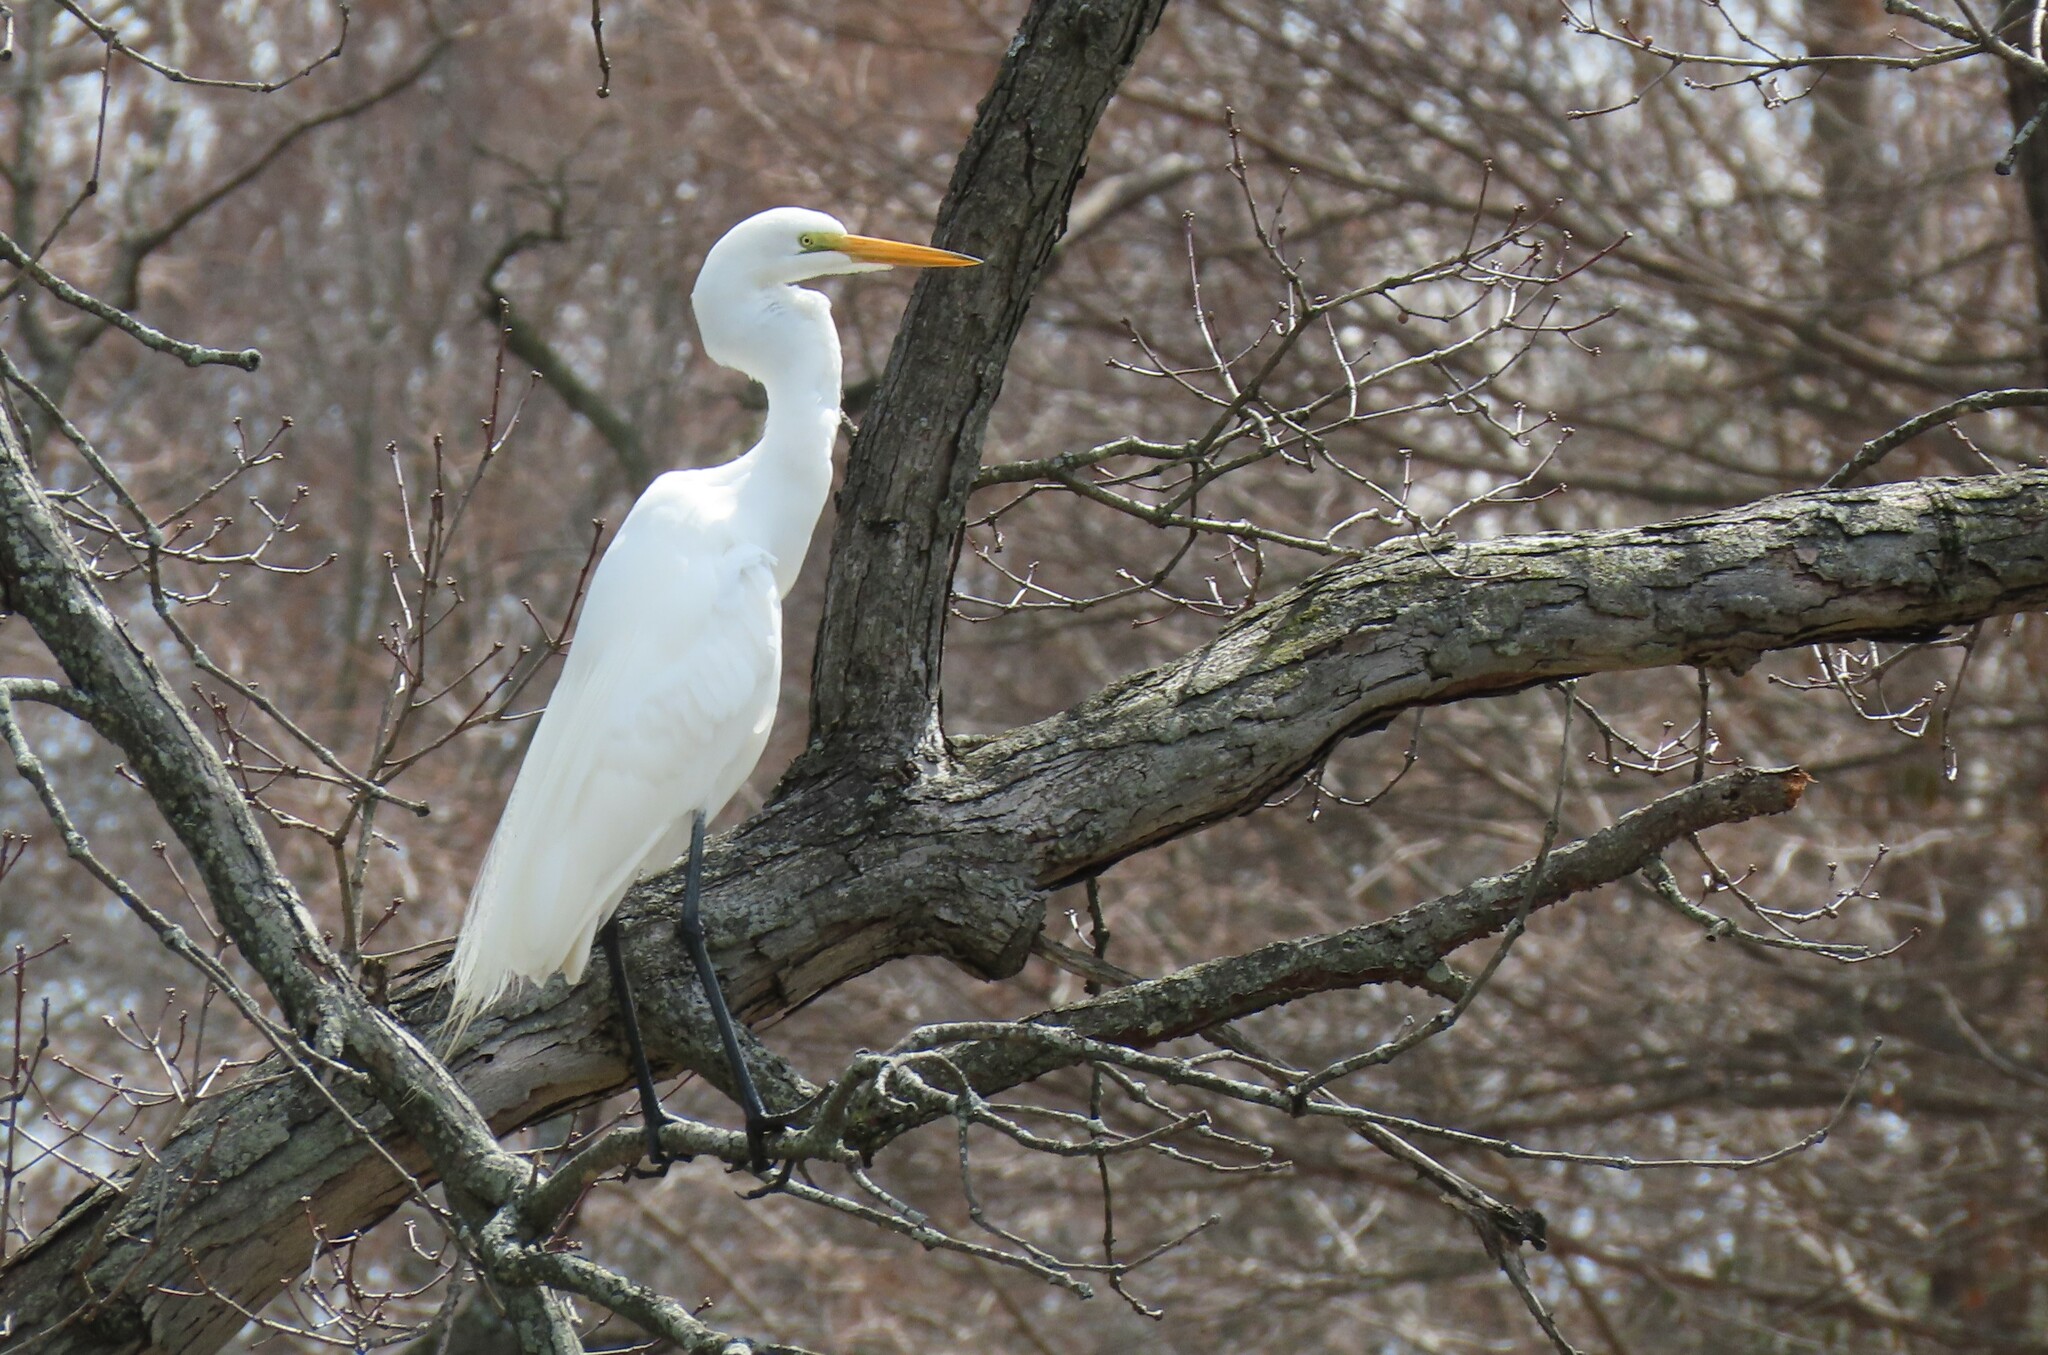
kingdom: Animalia
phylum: Chordata
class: Aves
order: Pelecaniformes
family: Ardeidae
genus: Ardea
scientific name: Ardea alba
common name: Great egret
